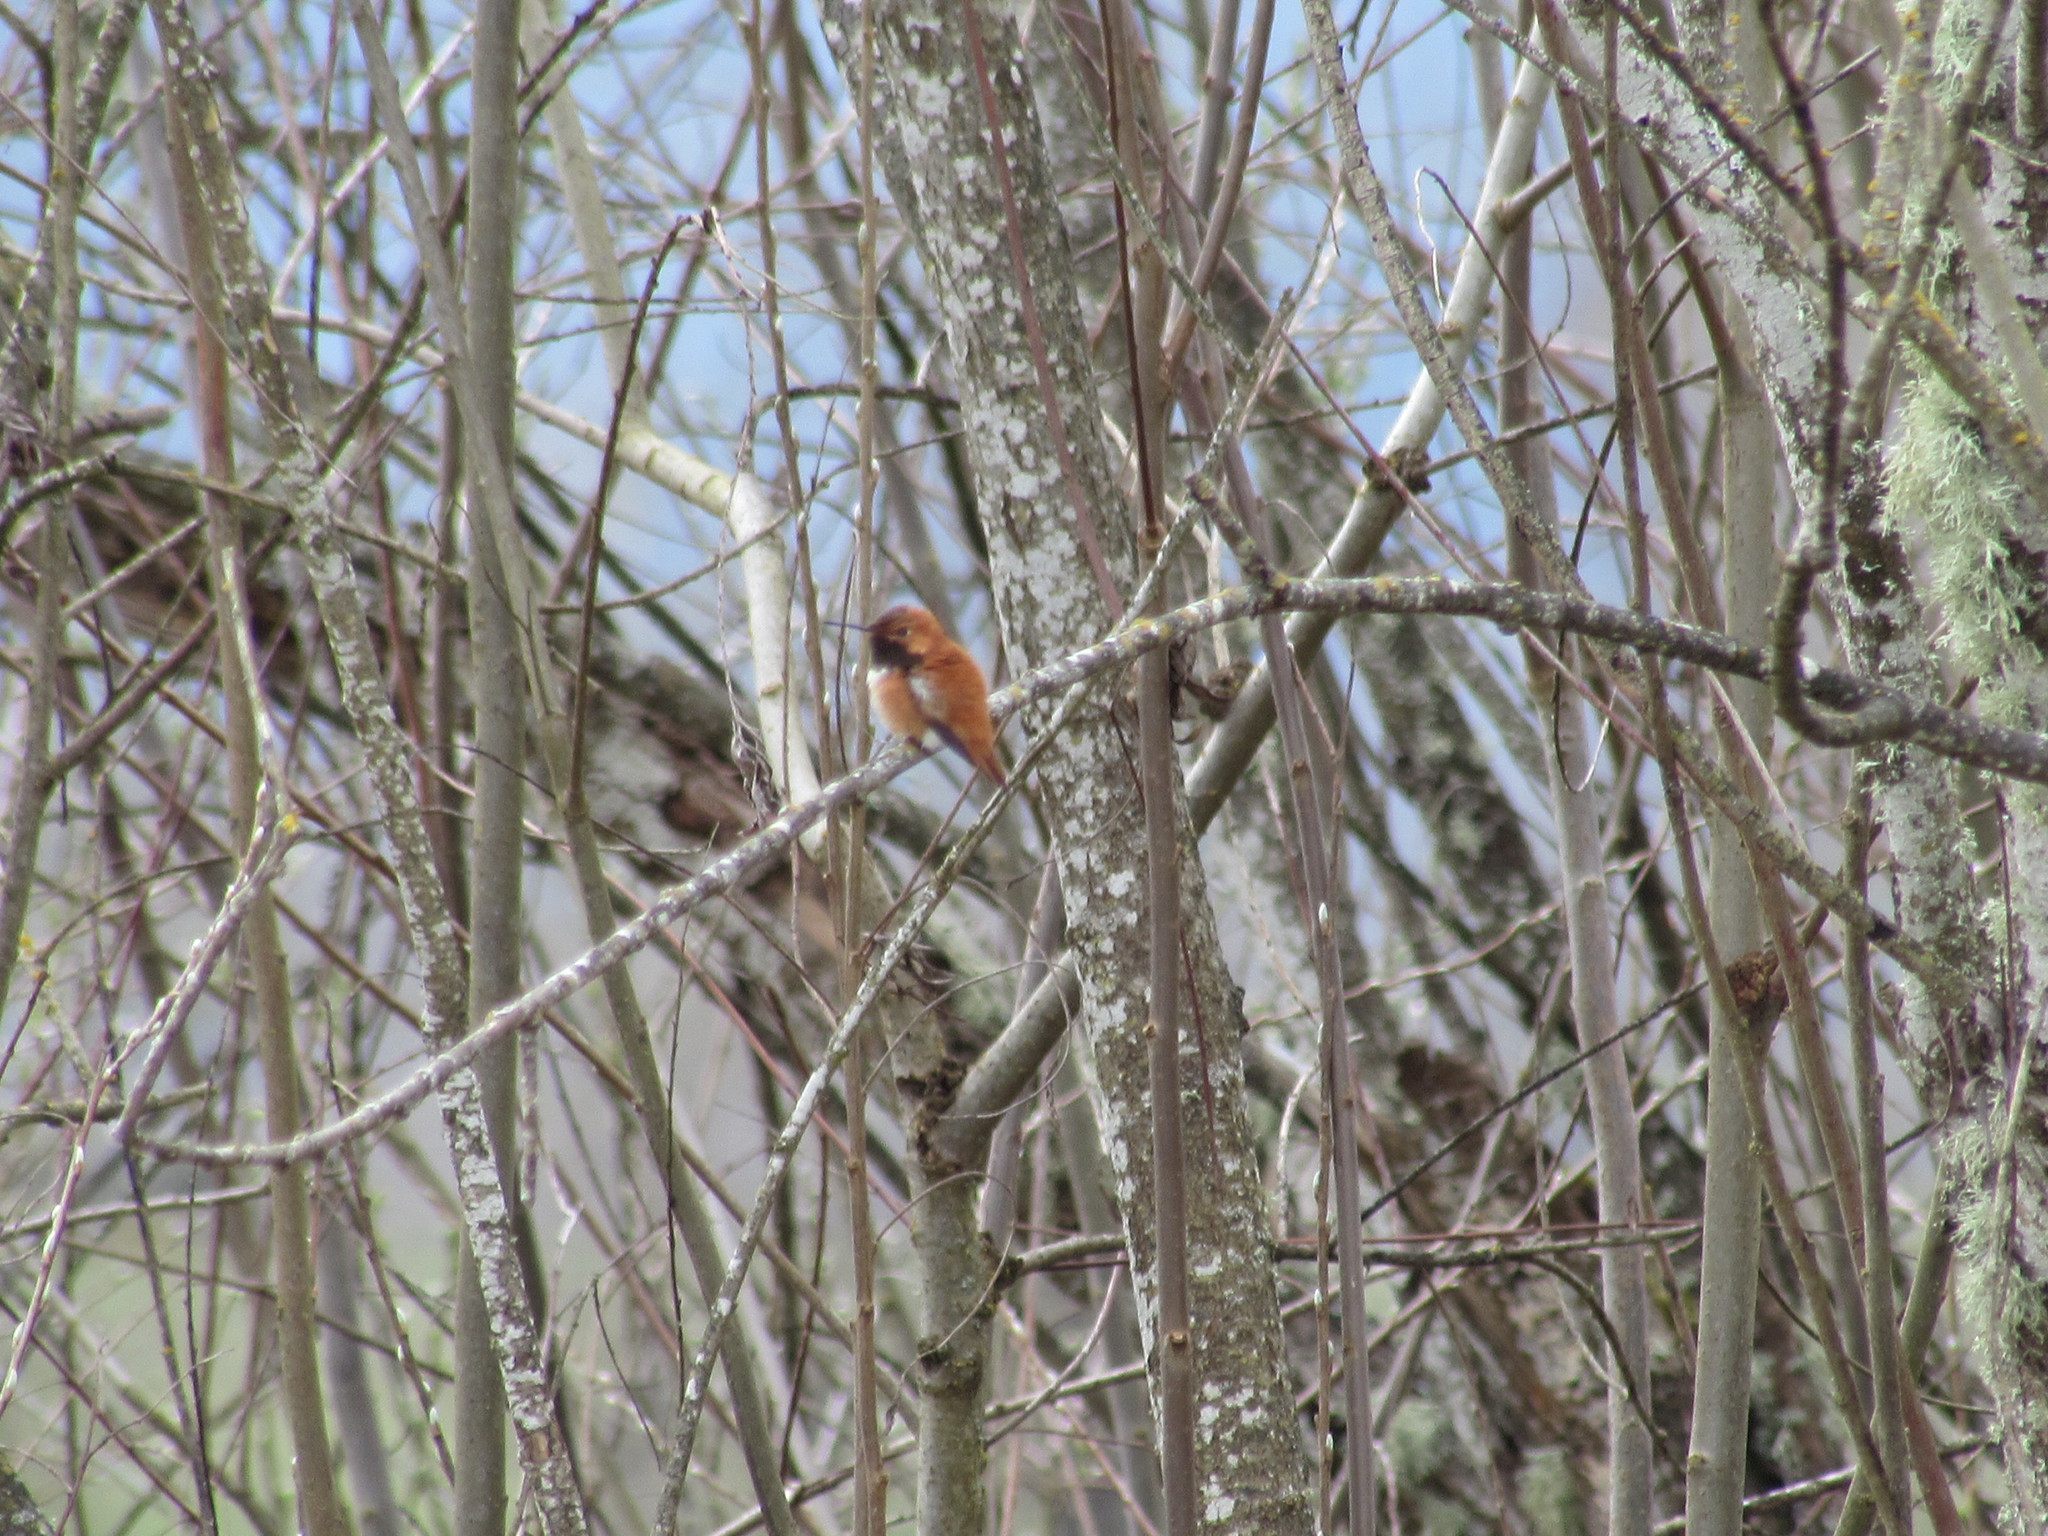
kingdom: Animalia
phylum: Chordata
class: Aves
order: Apodiformes
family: Trochilidae
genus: Selasphorus
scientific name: Selasphorus rufus
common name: Rufous hummingbird
